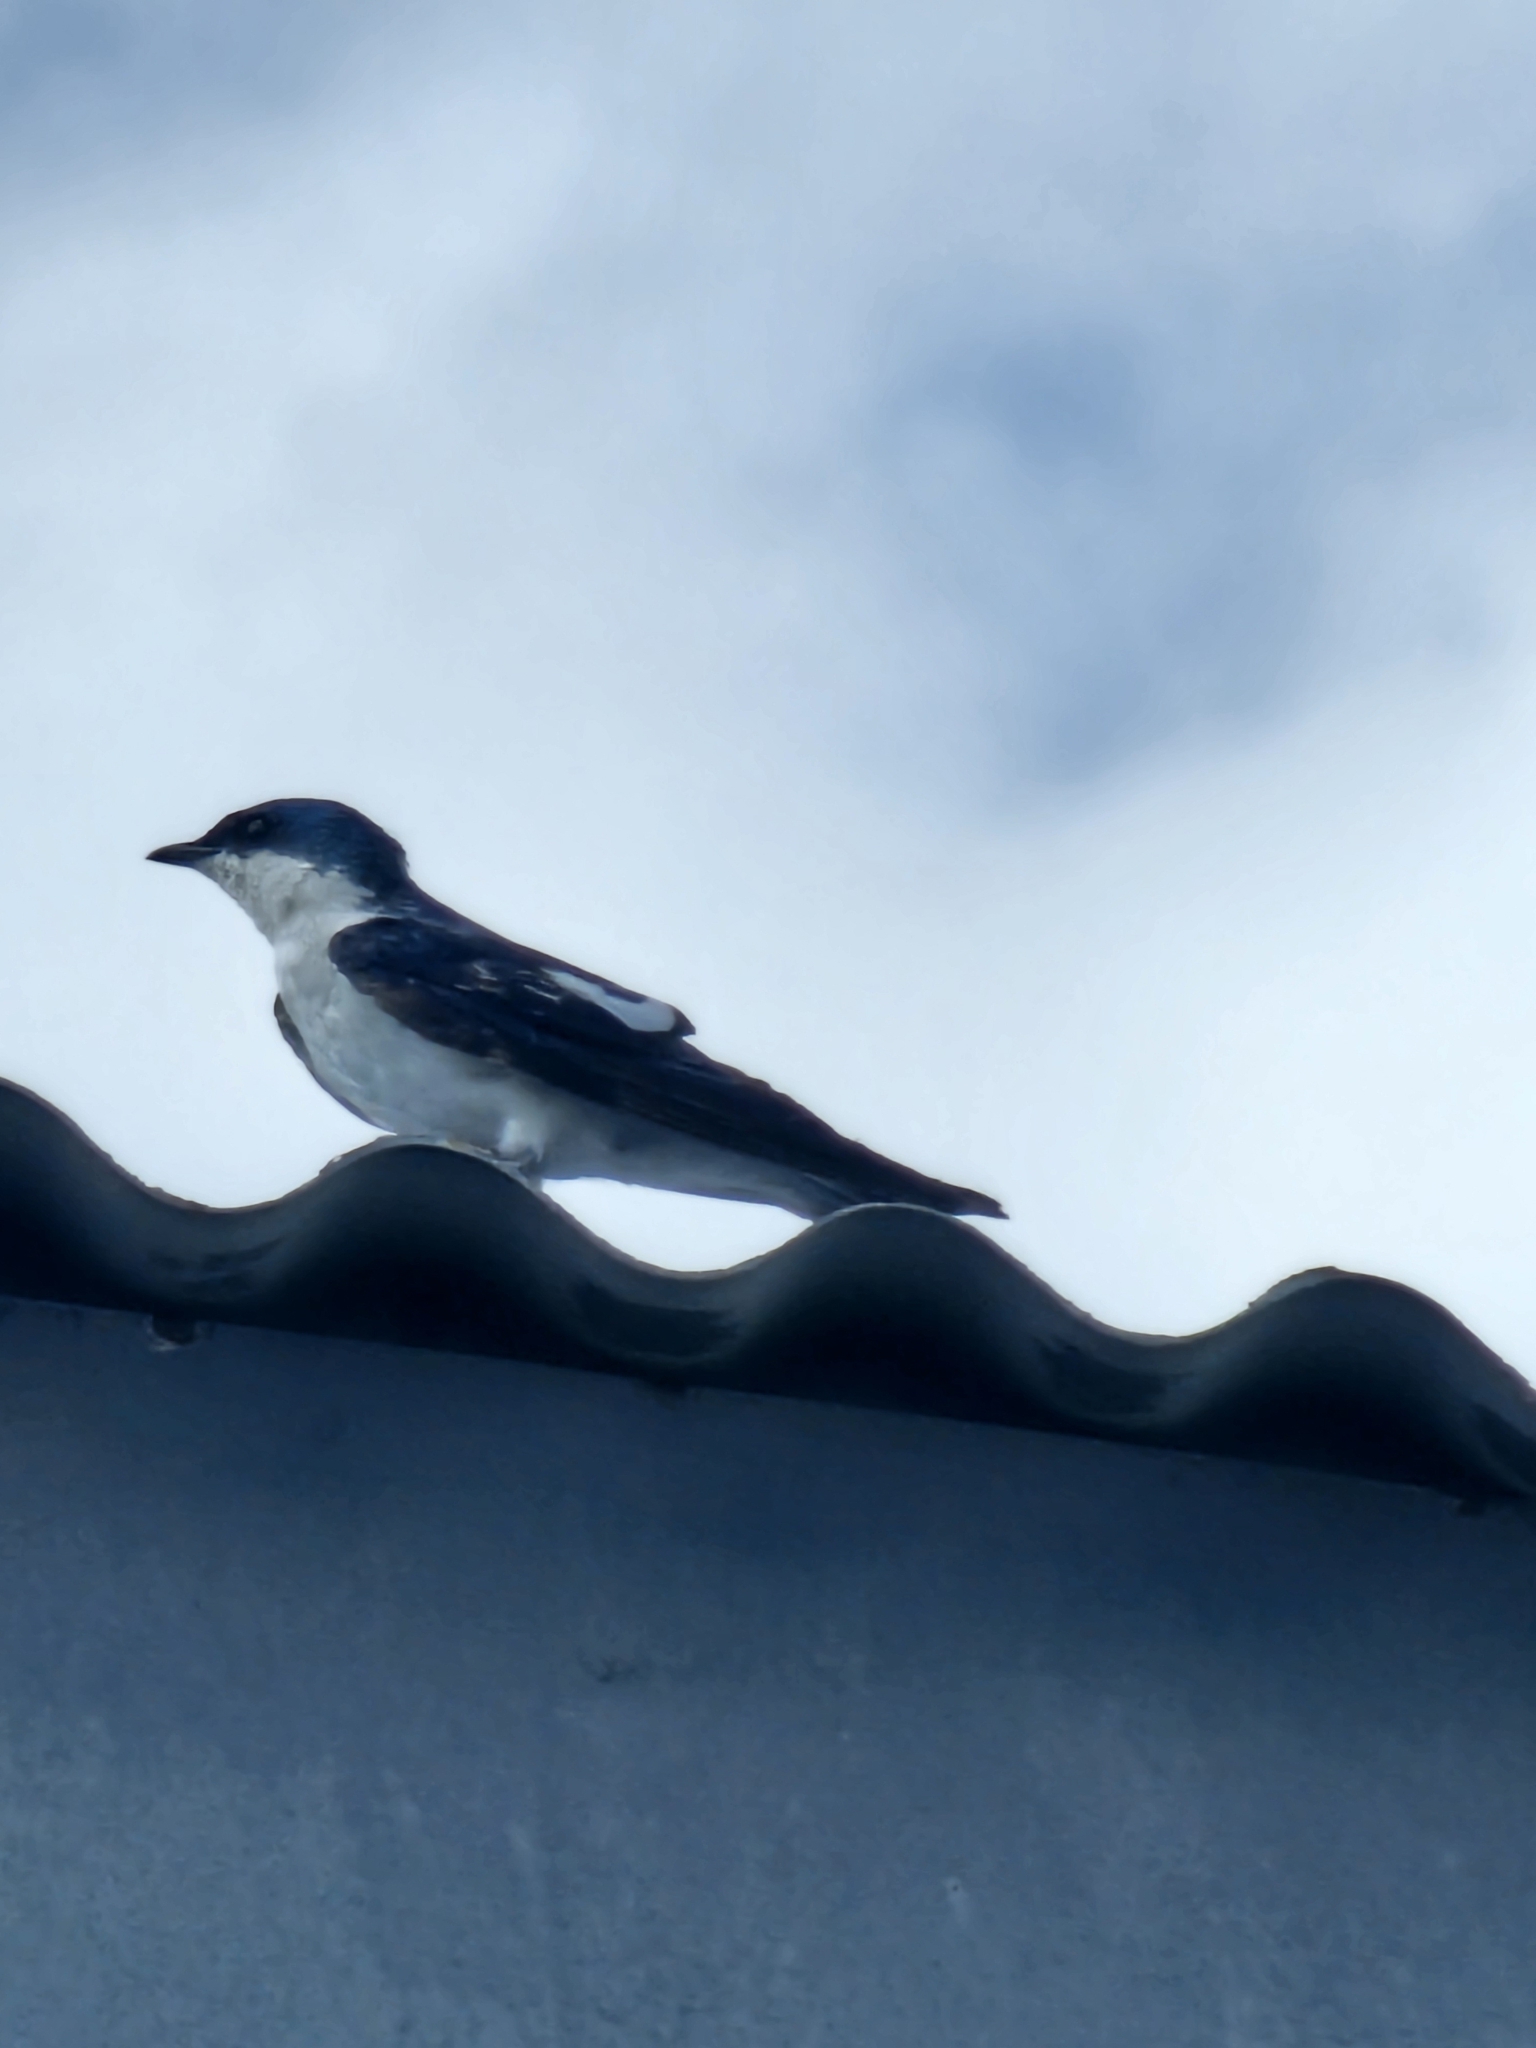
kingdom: Animalia
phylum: Chordata
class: Aves
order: Passeriformes
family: Hirundinidae
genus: Tachycineta
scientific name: Tachycineta albiventer
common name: White-winged swallow
